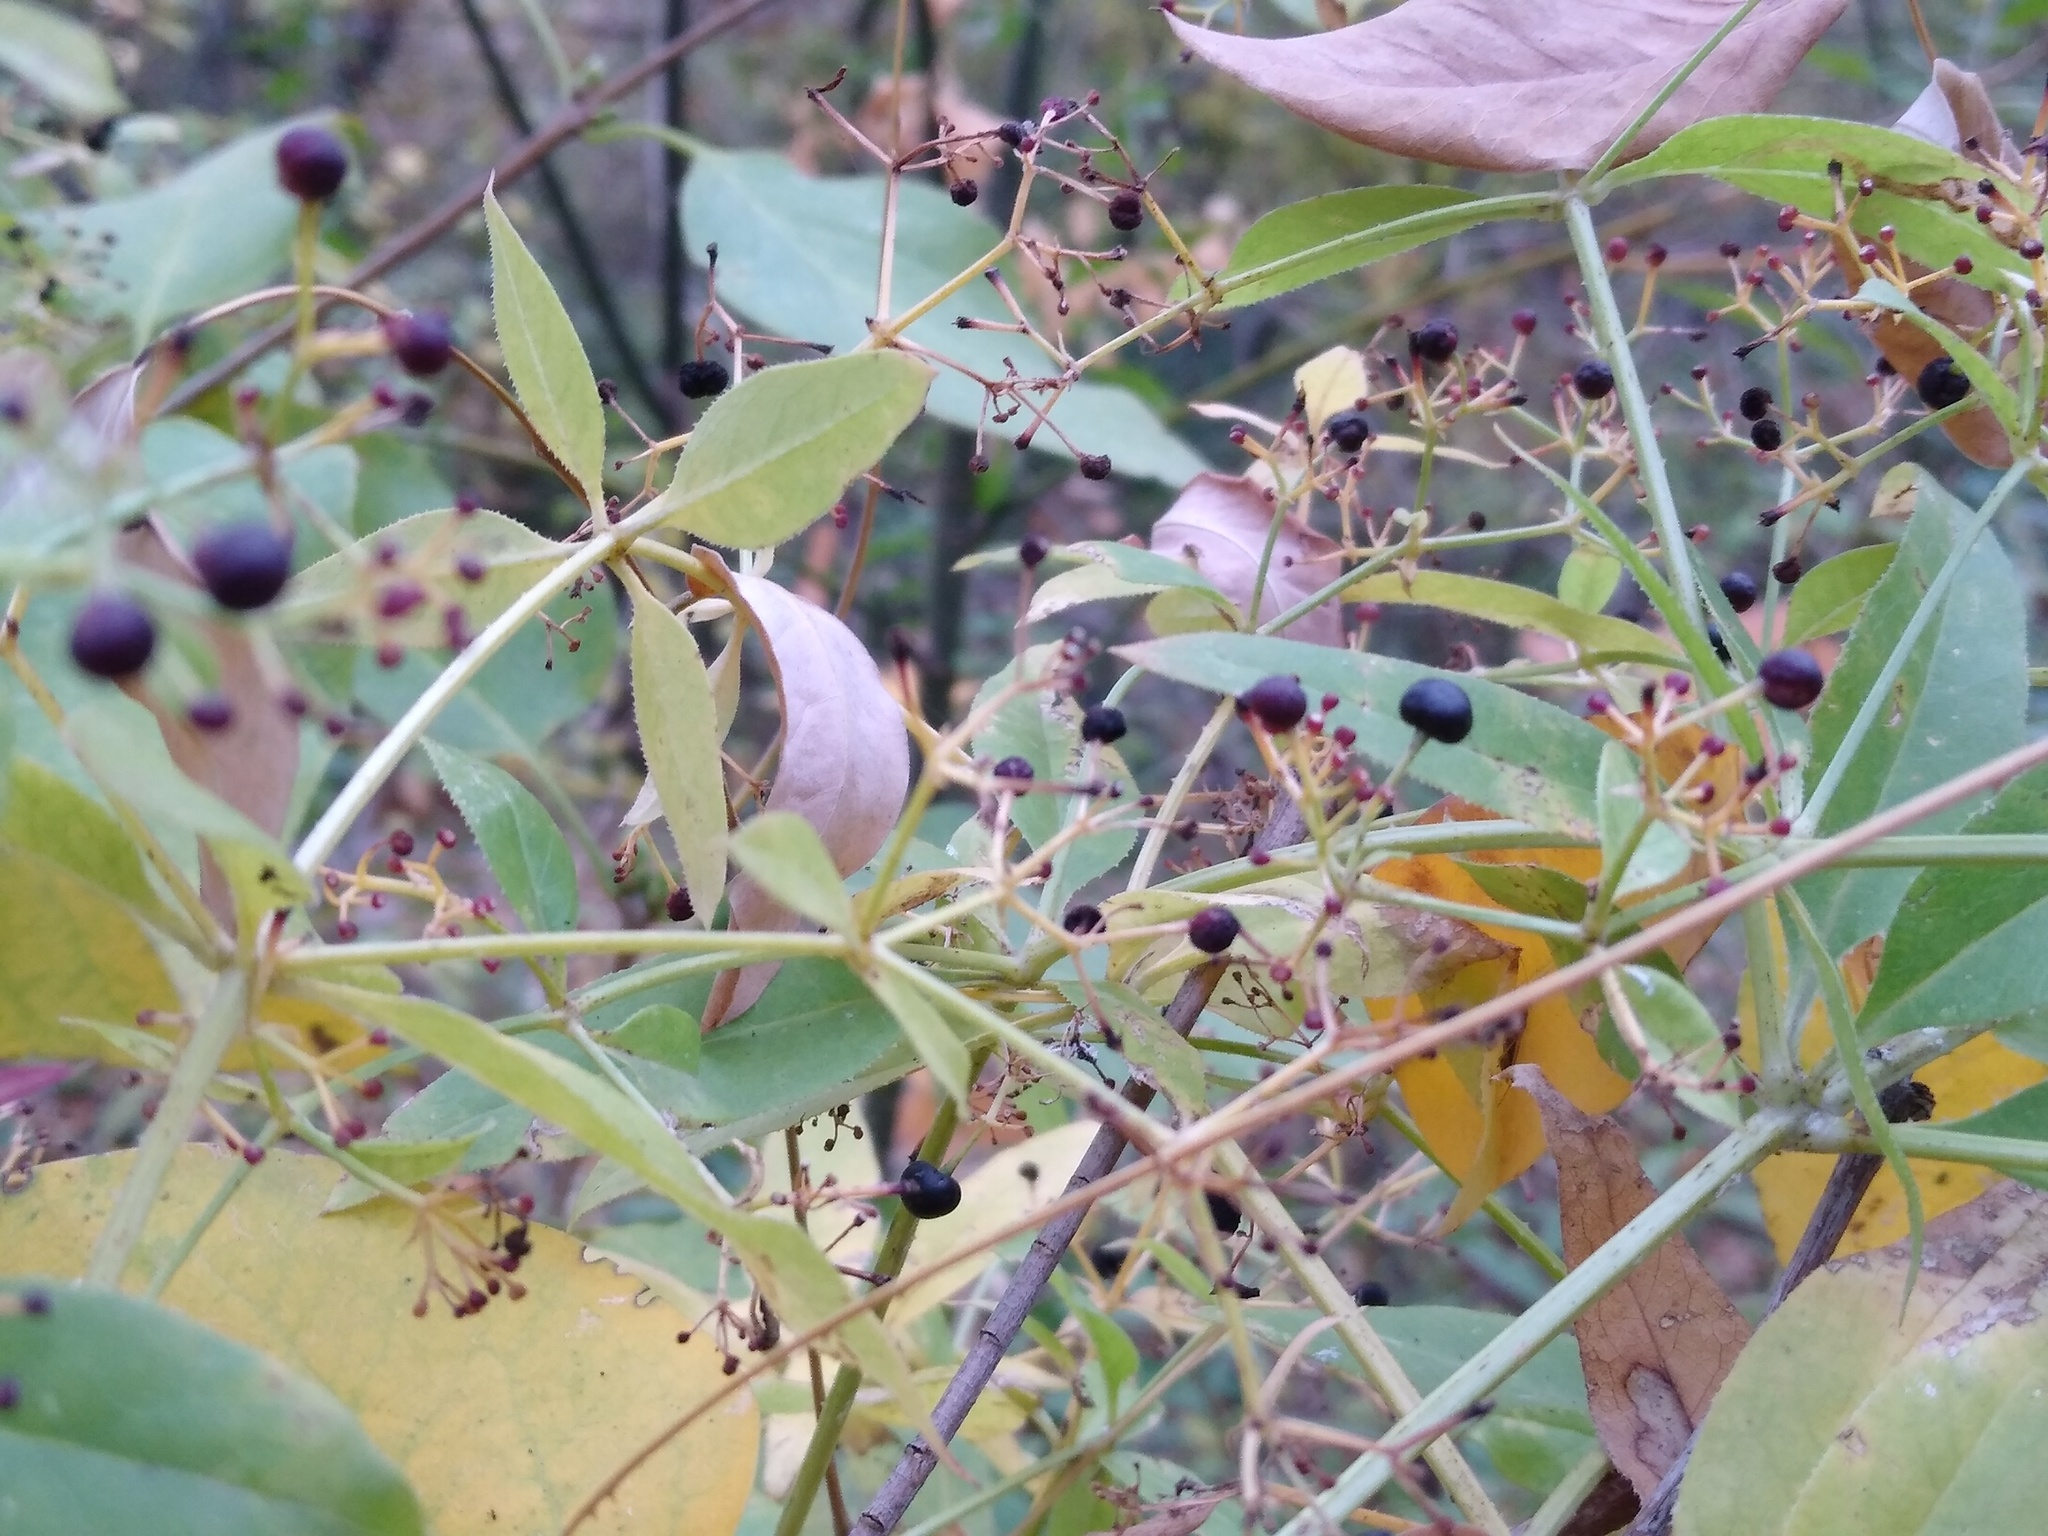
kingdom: Plantae
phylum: Tracheophyta
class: Magnoliopsida
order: Gentianales
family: Rubiaceae
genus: Rubia
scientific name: Rubia tinctorum
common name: Dyer's madder
